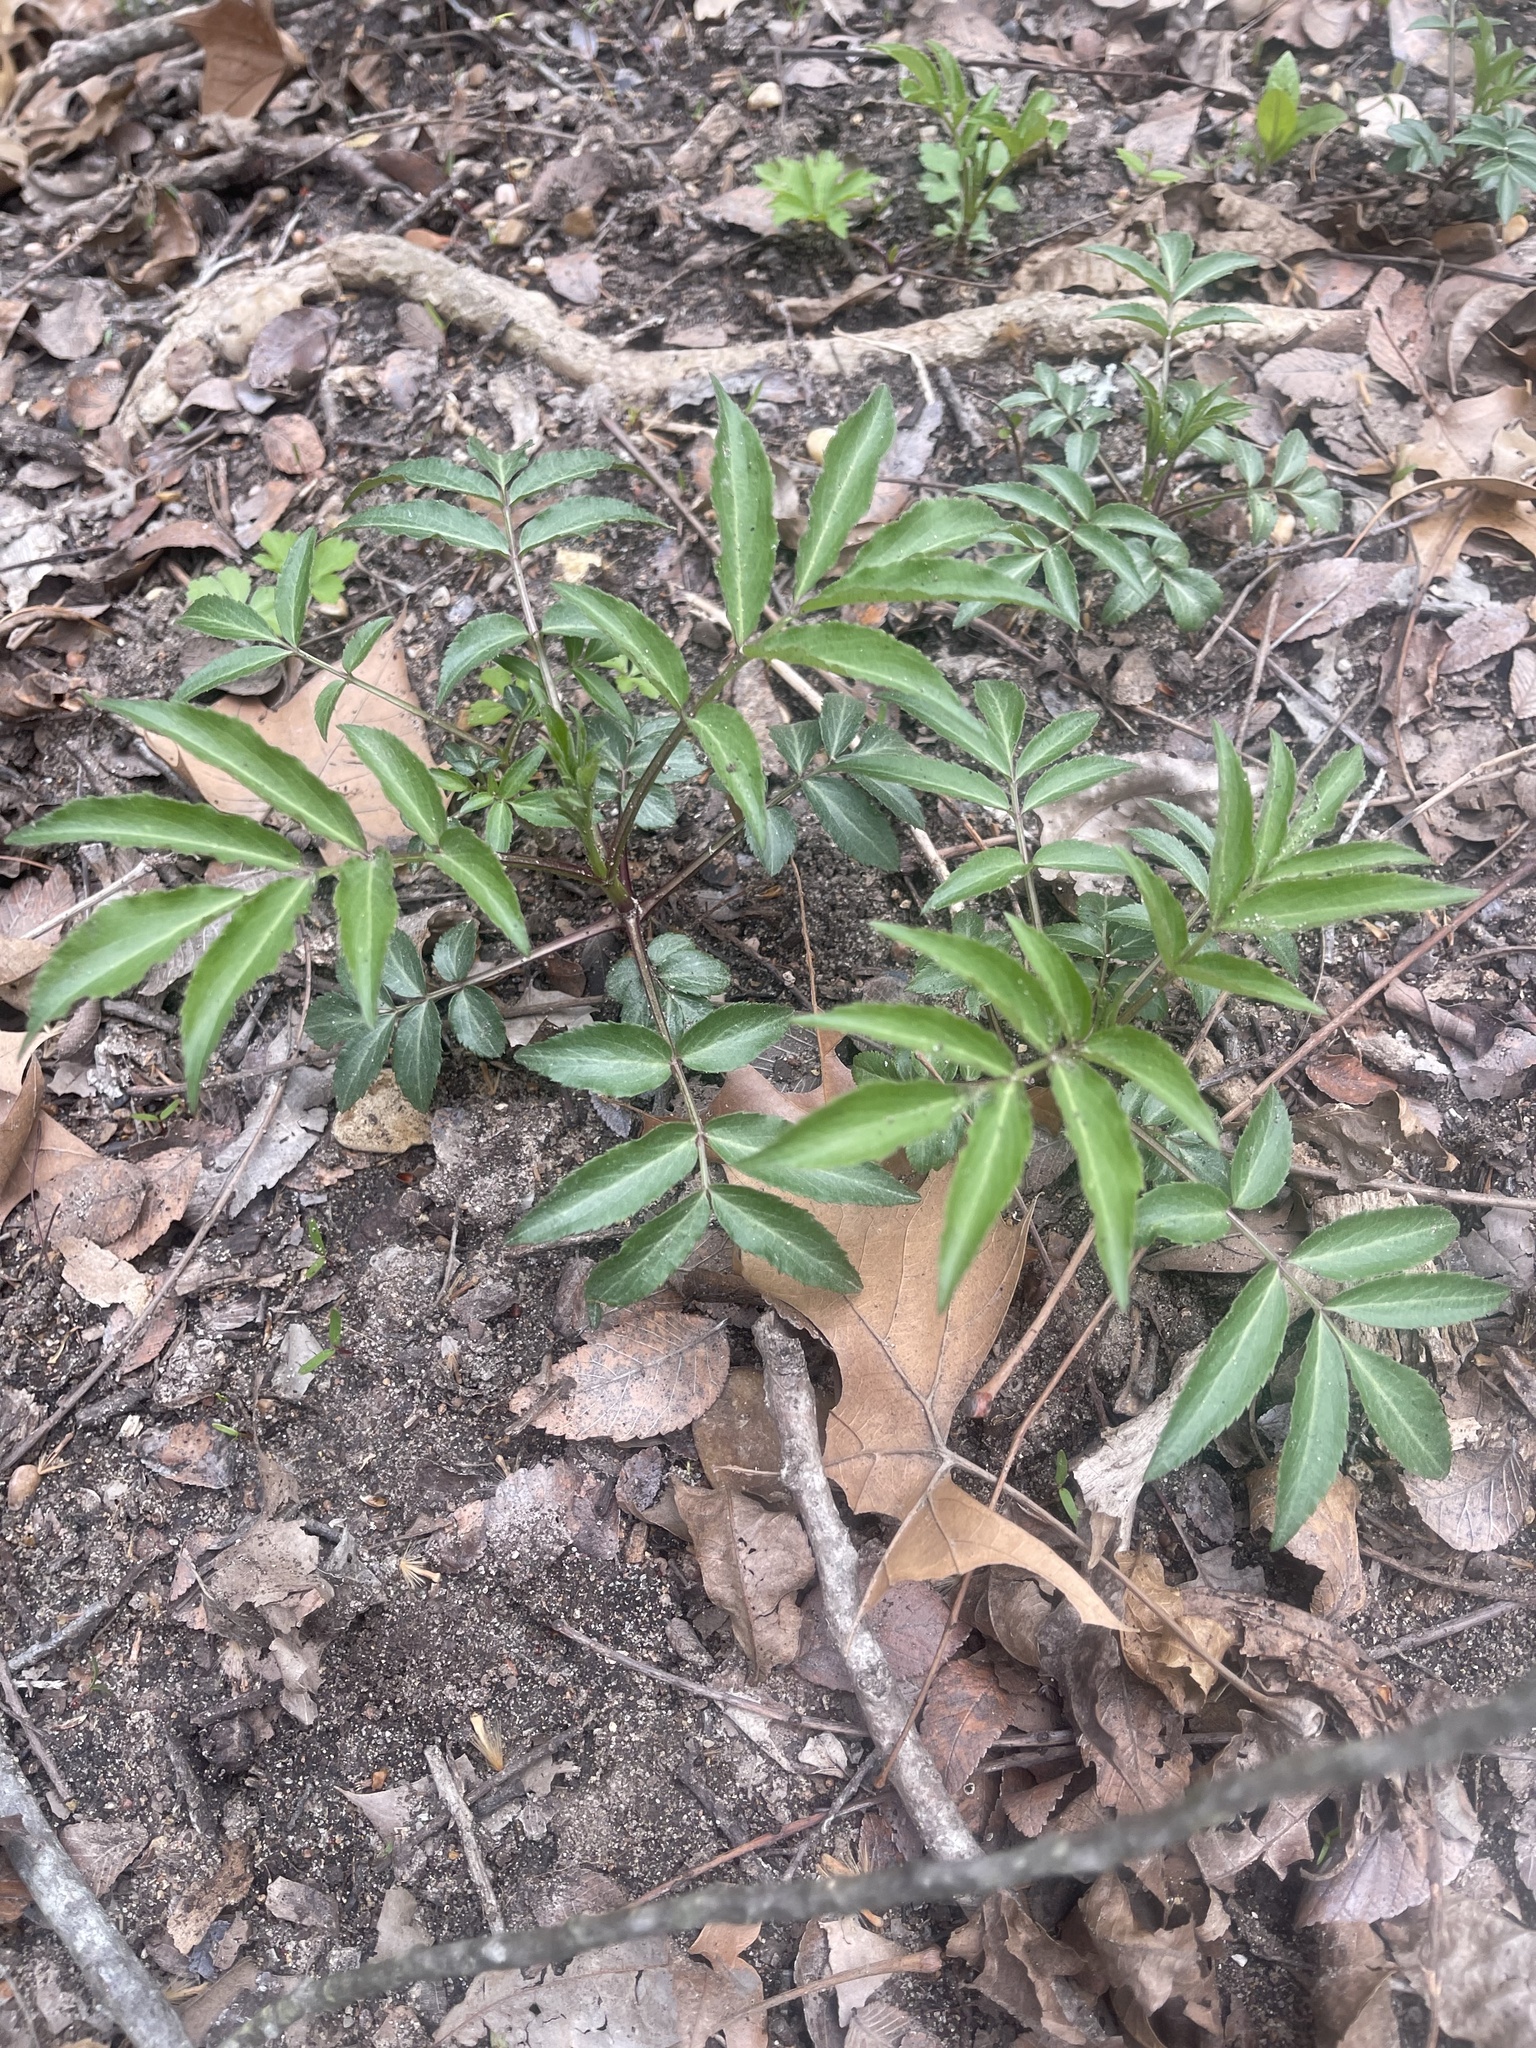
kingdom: Plantae
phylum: Tracheophyta
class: Magnoliopsida
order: Dipsacales
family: Viburnaceae
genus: Sambucus
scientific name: Sambucus canadensis
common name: American elder
